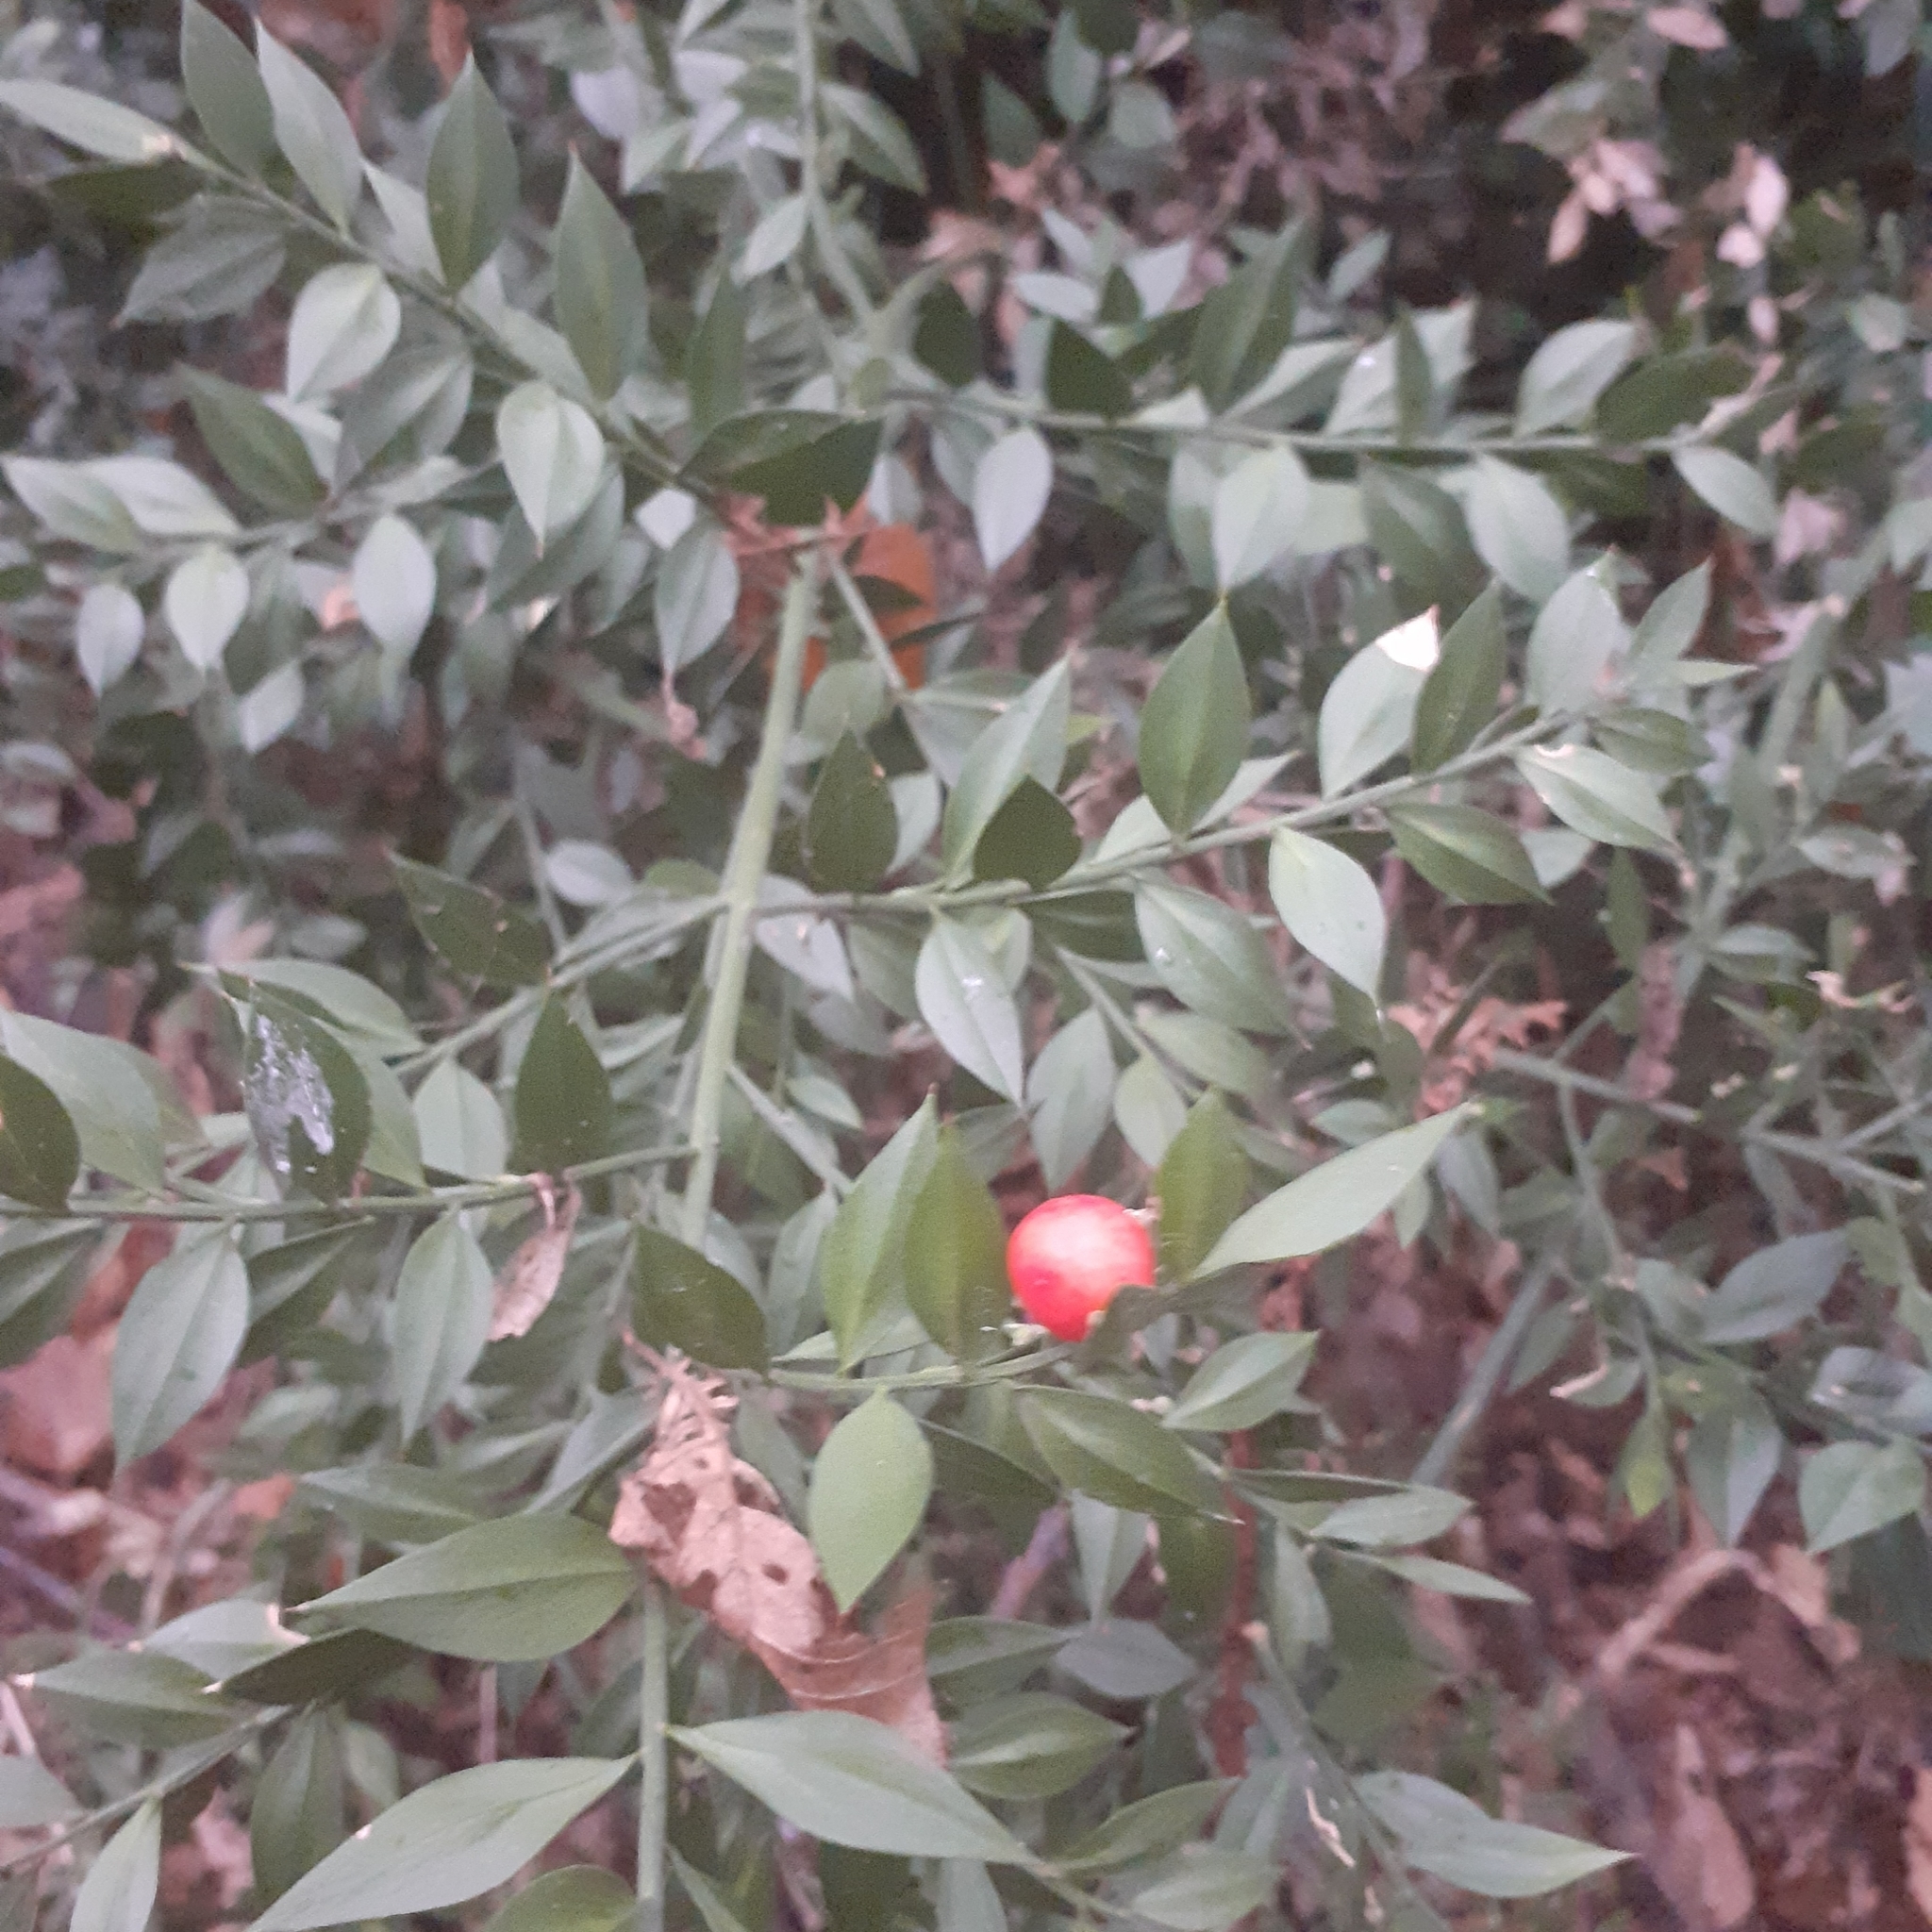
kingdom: Plantae
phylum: Tracheophyta
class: Liliopsida
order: Asparagales
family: Asparagaceae
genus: Ruscus
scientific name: Ruscus aculeatus
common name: Butcher's-broom
